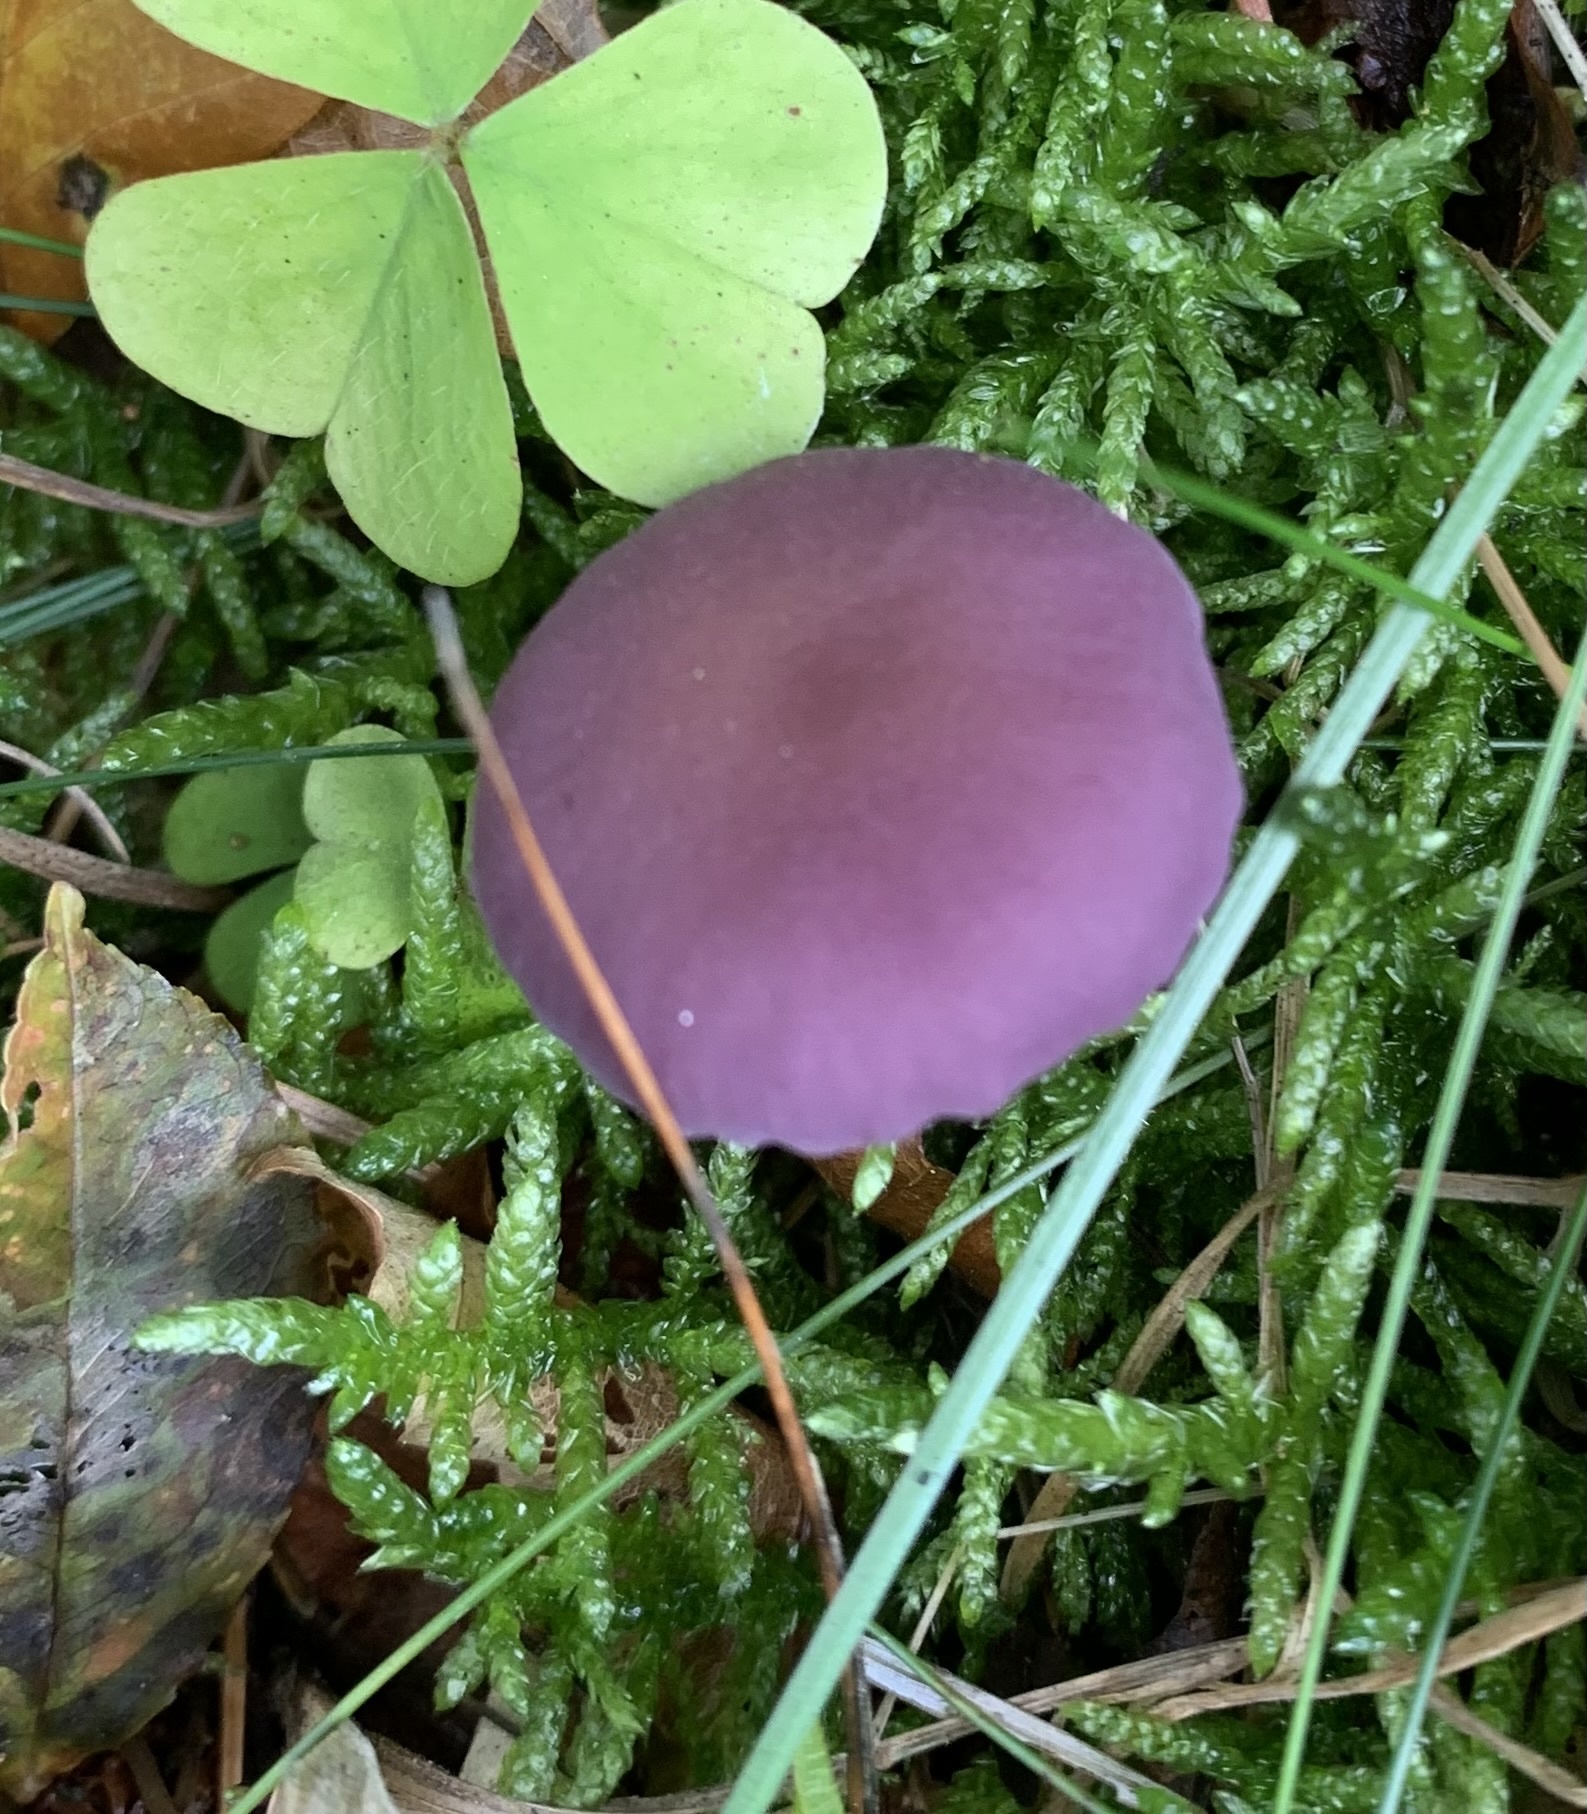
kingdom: Fungi
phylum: Basidiomycota
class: Agaricomycetes
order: Agaricales
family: Hydnangiaceae
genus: Laccaria
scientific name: Laccaria amethystina
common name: Amethyst deceiver
